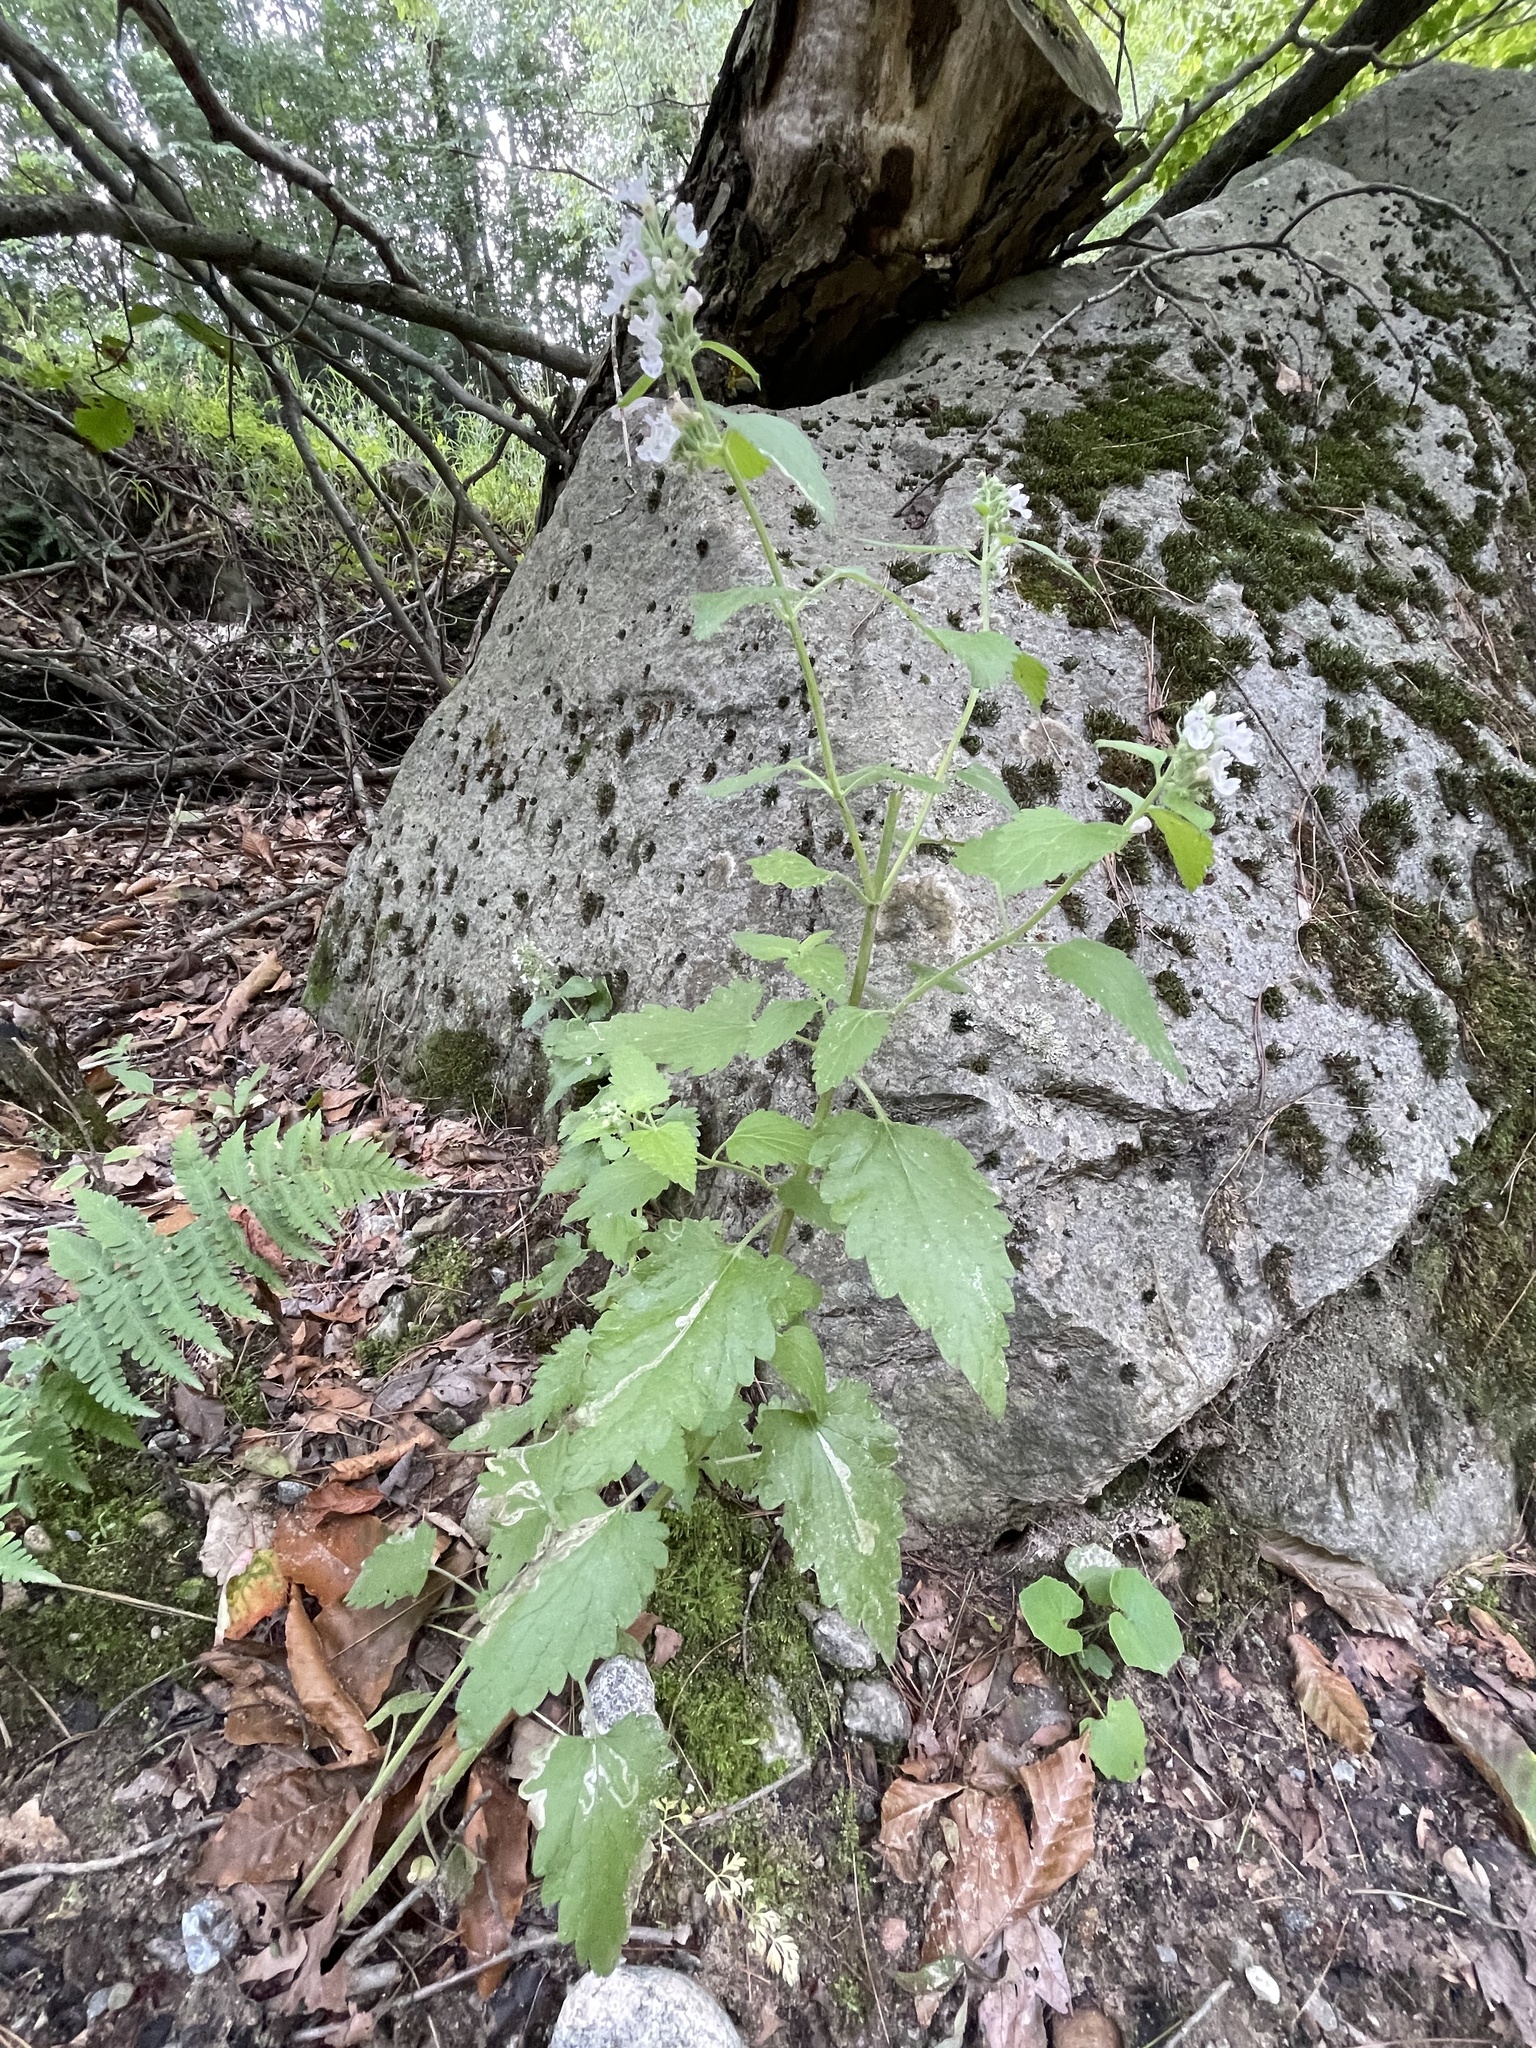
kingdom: Plantae
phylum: Tracheophyta
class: Magnoliopsida
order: Lamiales
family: Lamiaceae
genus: Nepeta
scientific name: Nepeta cataria
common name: Catnip
